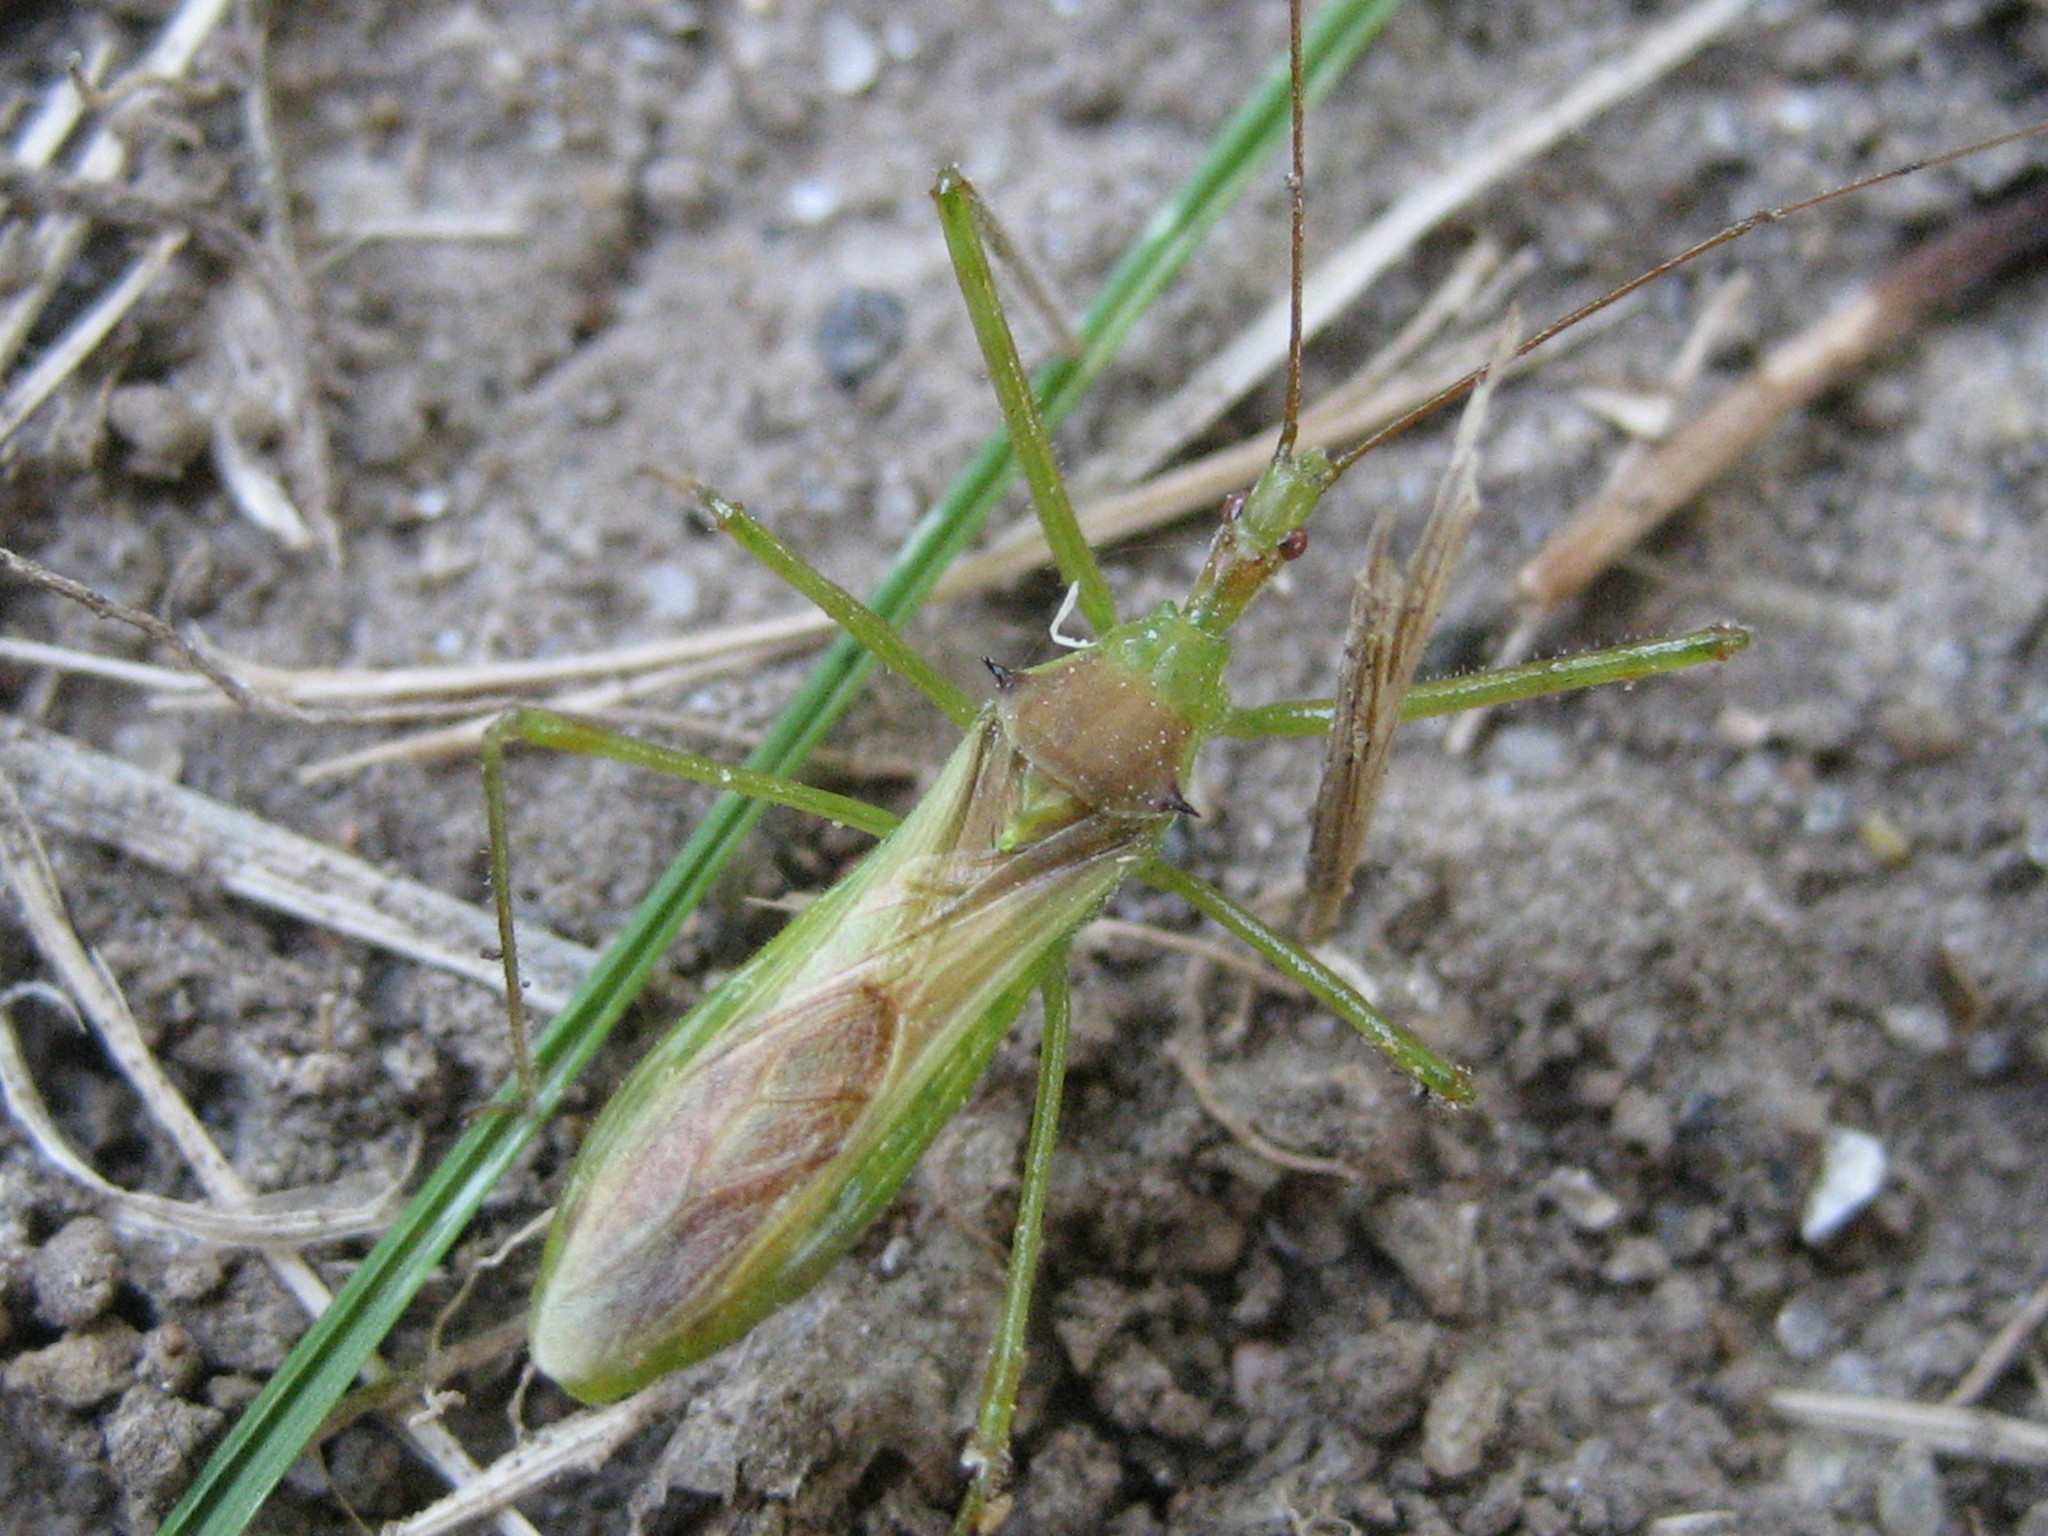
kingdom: Animalia
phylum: Arthropoda
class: Insecta
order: Hemiptera
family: Reduviidae
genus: Zelus
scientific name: Zelus luridus
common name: Pale green assassin bug
